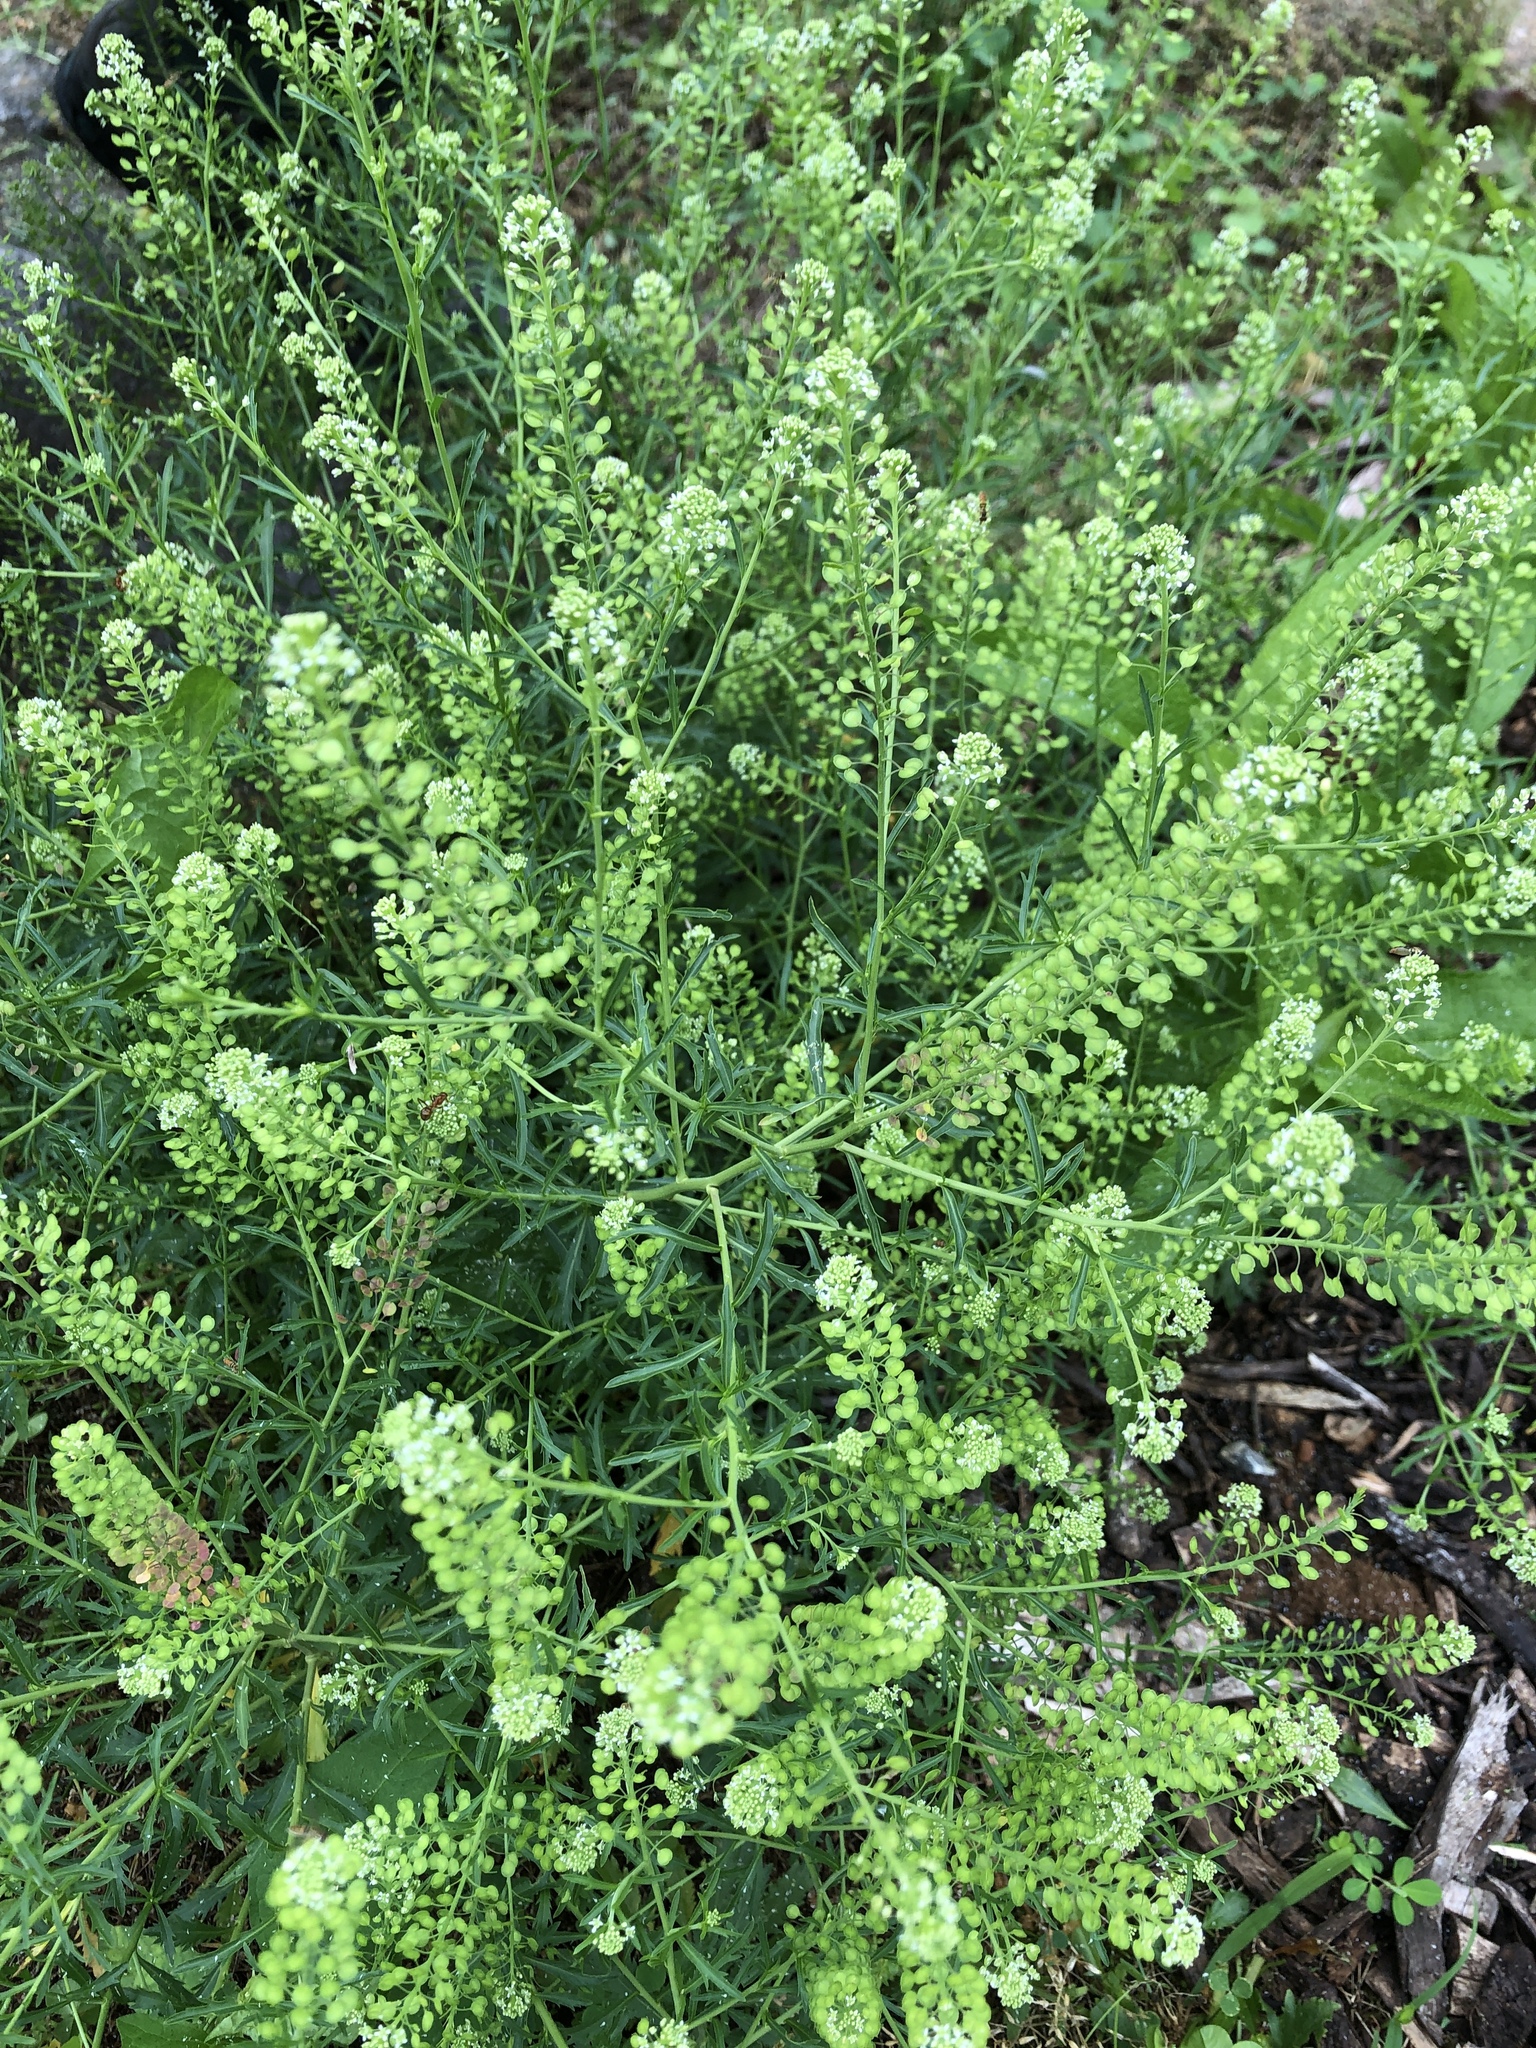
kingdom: Plantae
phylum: Tracheophyta
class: Magnoliopsida
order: Brassicales
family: Brassicaceae
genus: Lepidium
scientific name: Lepidium virginicum
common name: Least pepperwort
